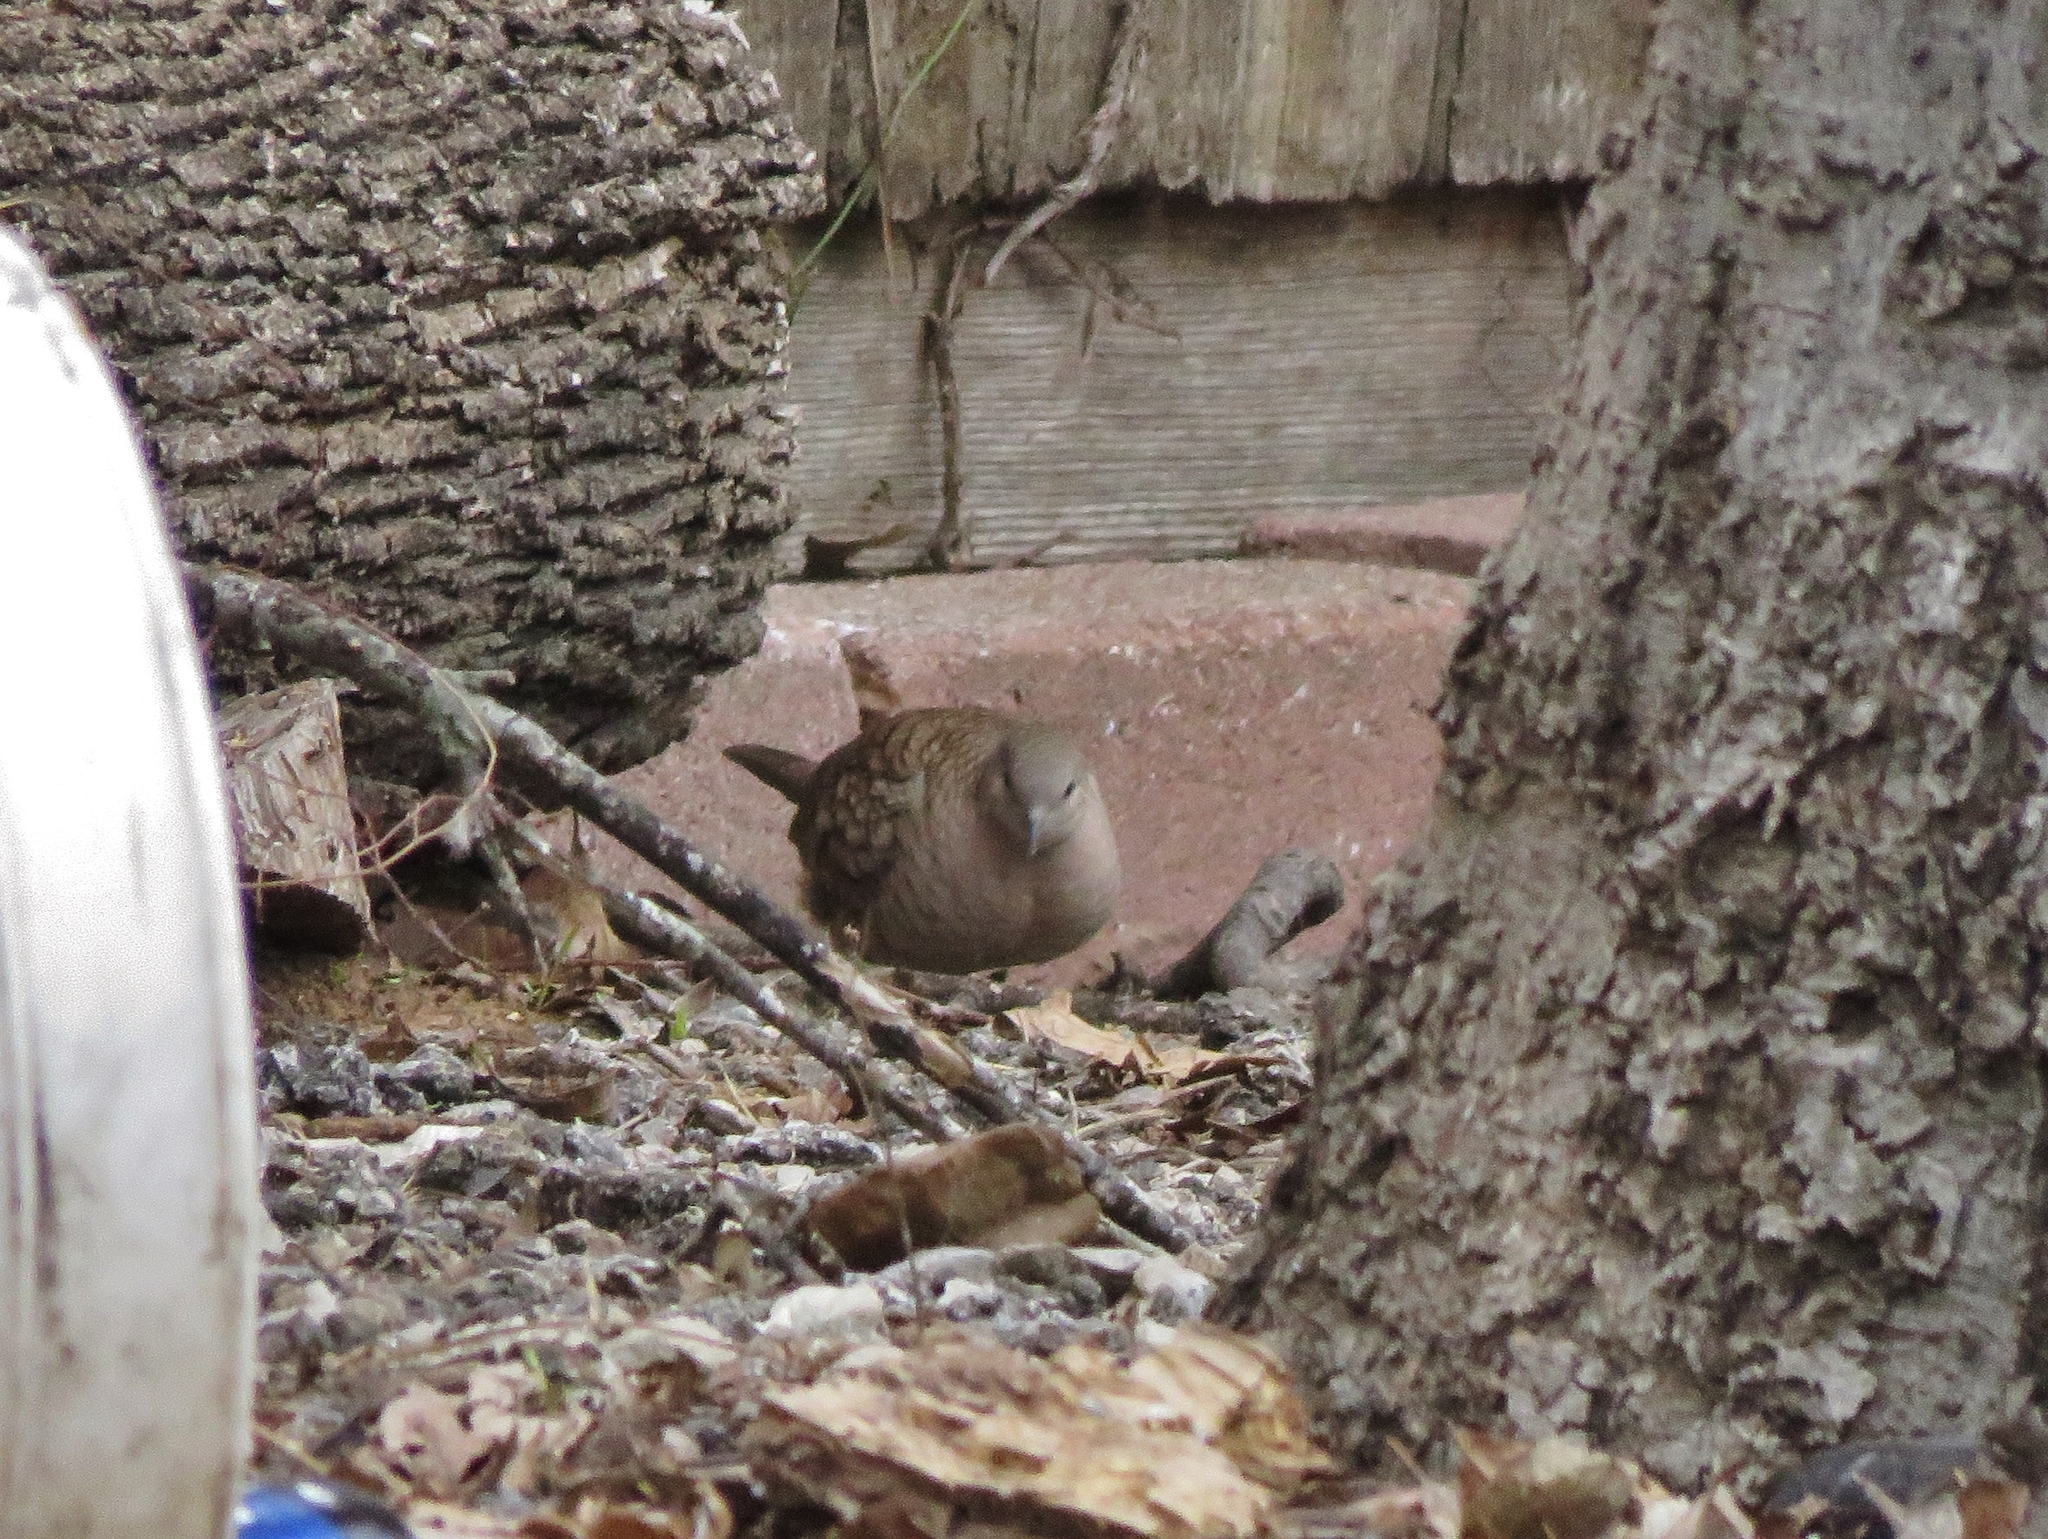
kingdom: Animalia
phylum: Chordata
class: Aves
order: Columbiformes
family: Columbidae
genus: Columbina
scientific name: Columbina inca
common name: Inca dove
